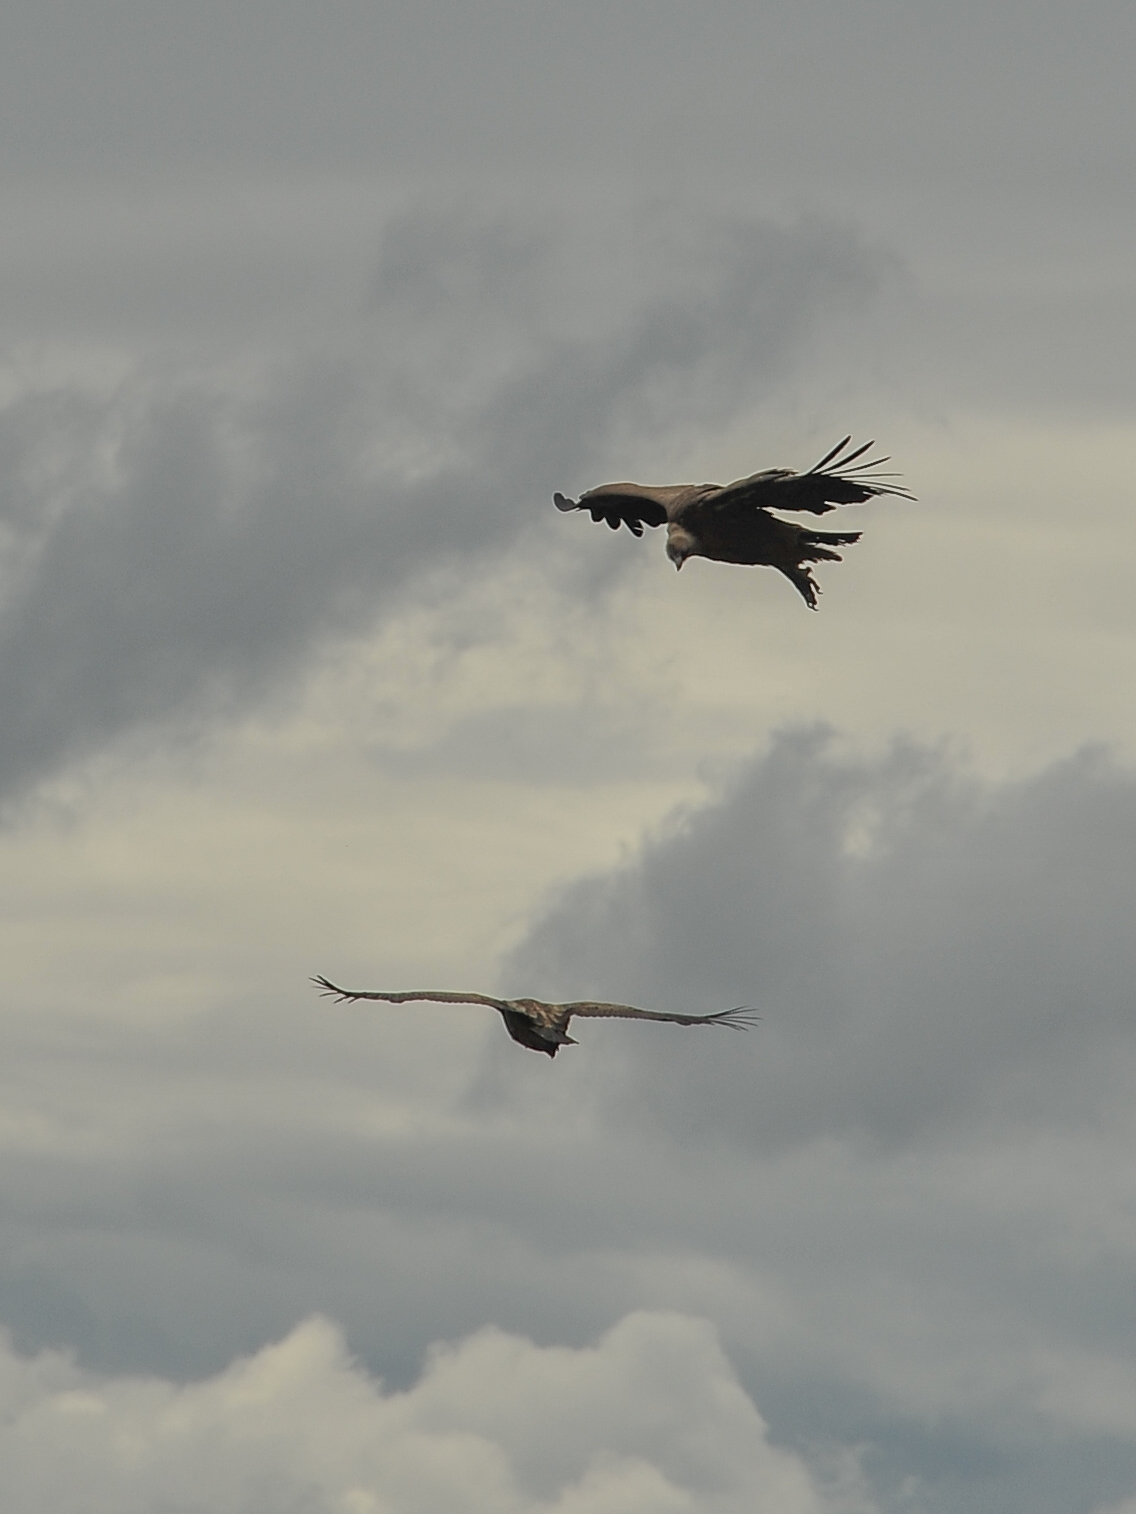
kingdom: Animalia
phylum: Chordata
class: Aves
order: Accipitriformes
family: Accipitridae
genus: Gyps
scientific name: Gyps fulvus
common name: Griffon vulture
